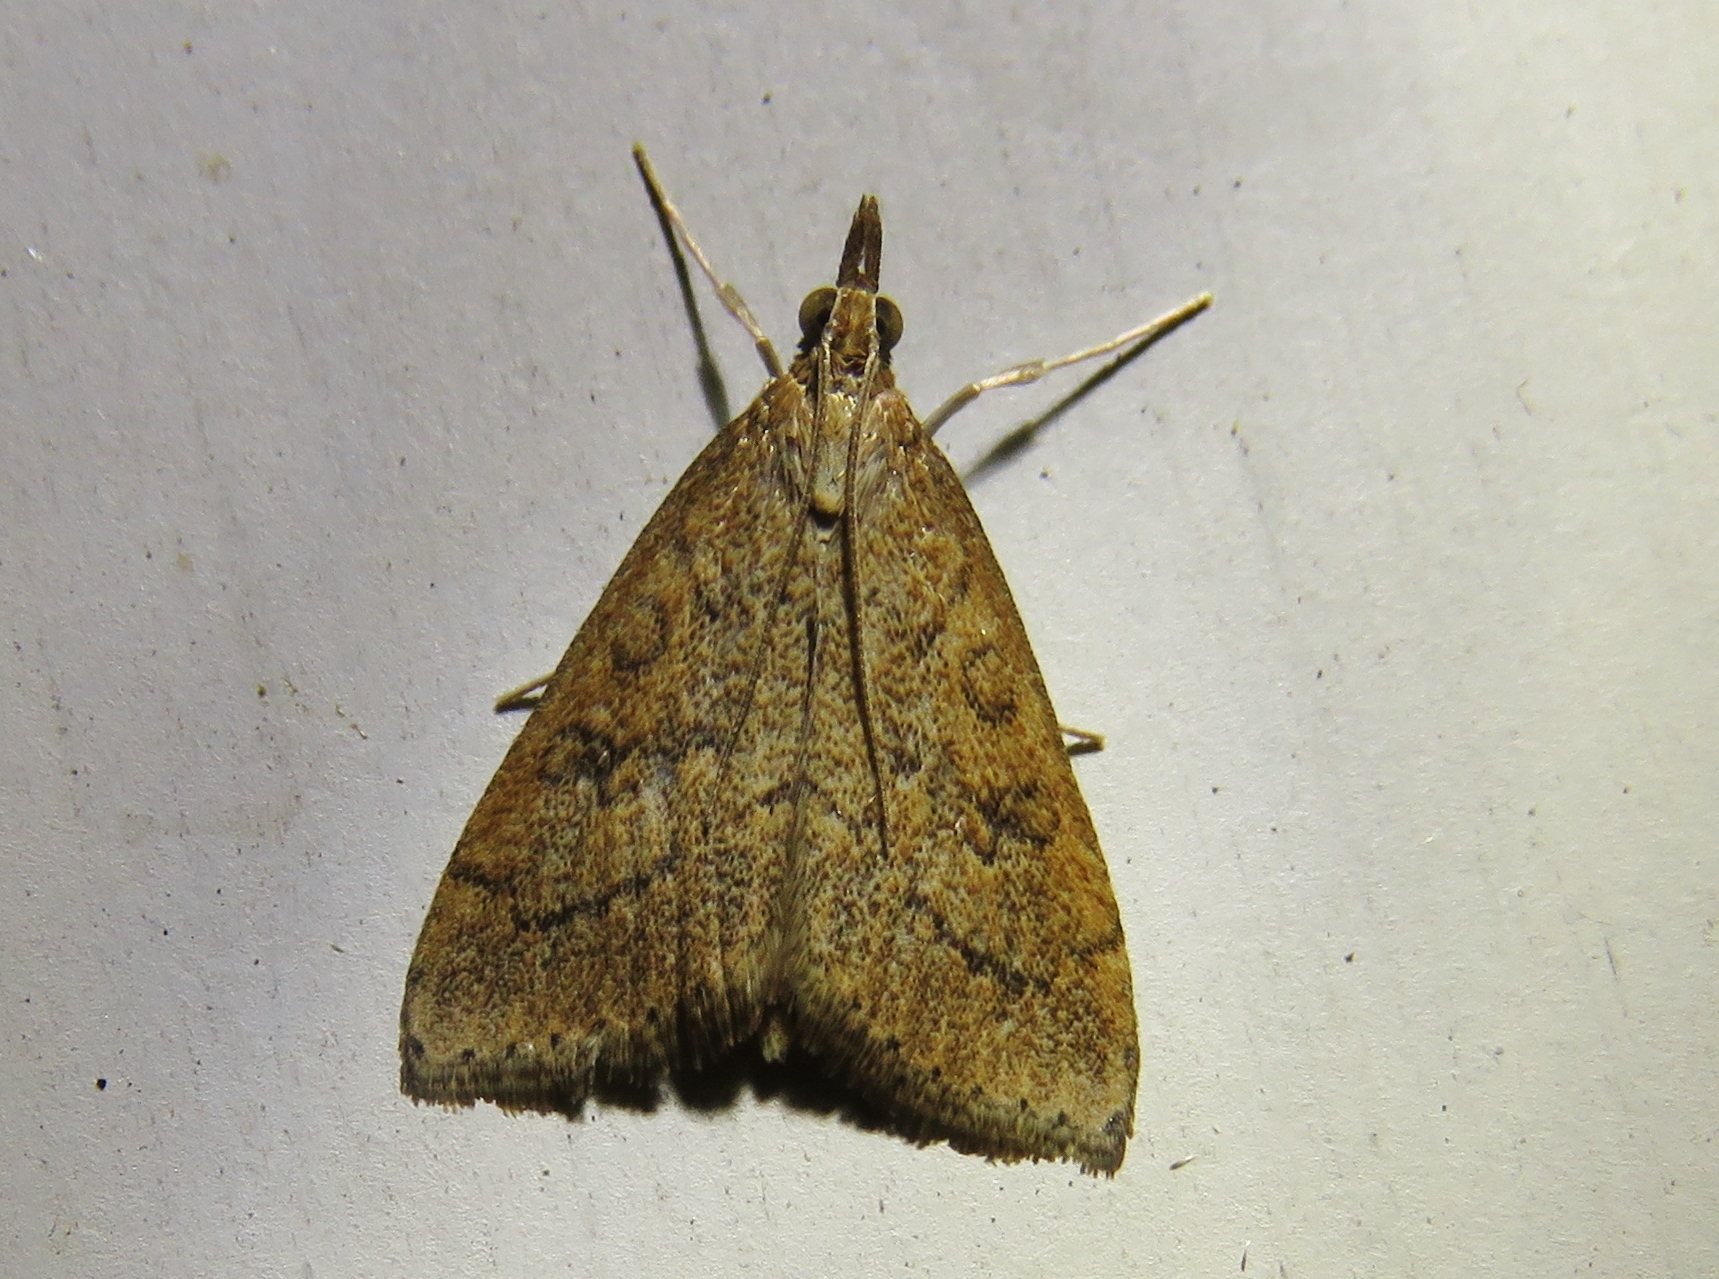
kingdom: Animalia
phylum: Arthropoda
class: Insecta
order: Lepidoptera
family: Crambidae
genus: Udea
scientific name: Udea rubigalis
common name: Celery leaftier moth
